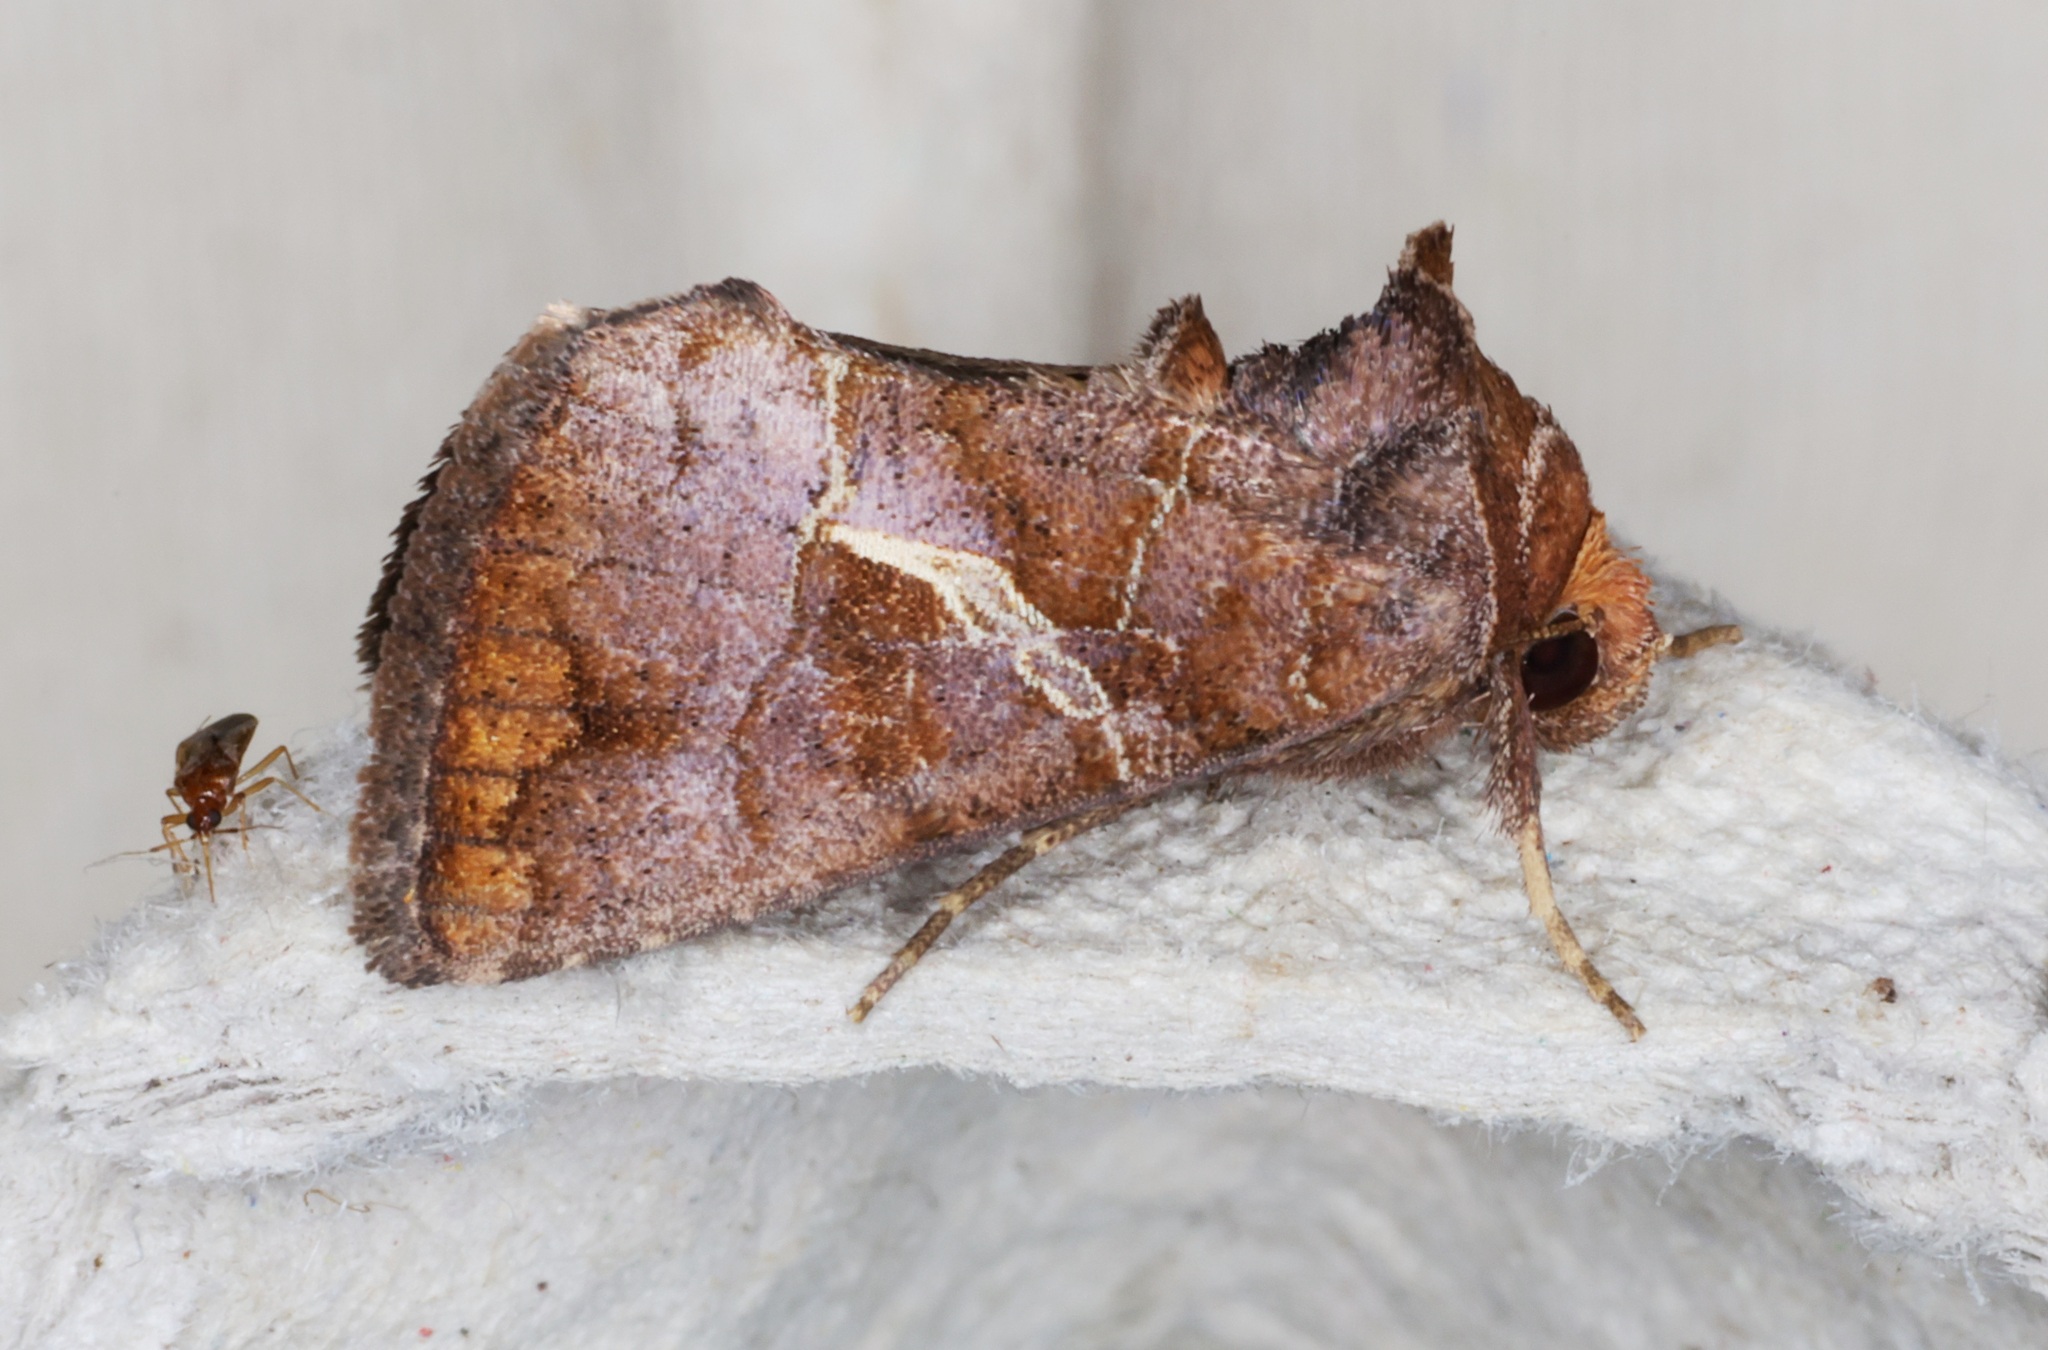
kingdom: Animalia
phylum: Arthropoda
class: Insecta
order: Lepidoptera
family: Noctuidae
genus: Zonoplusia
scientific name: Zonoplusia ochreata
